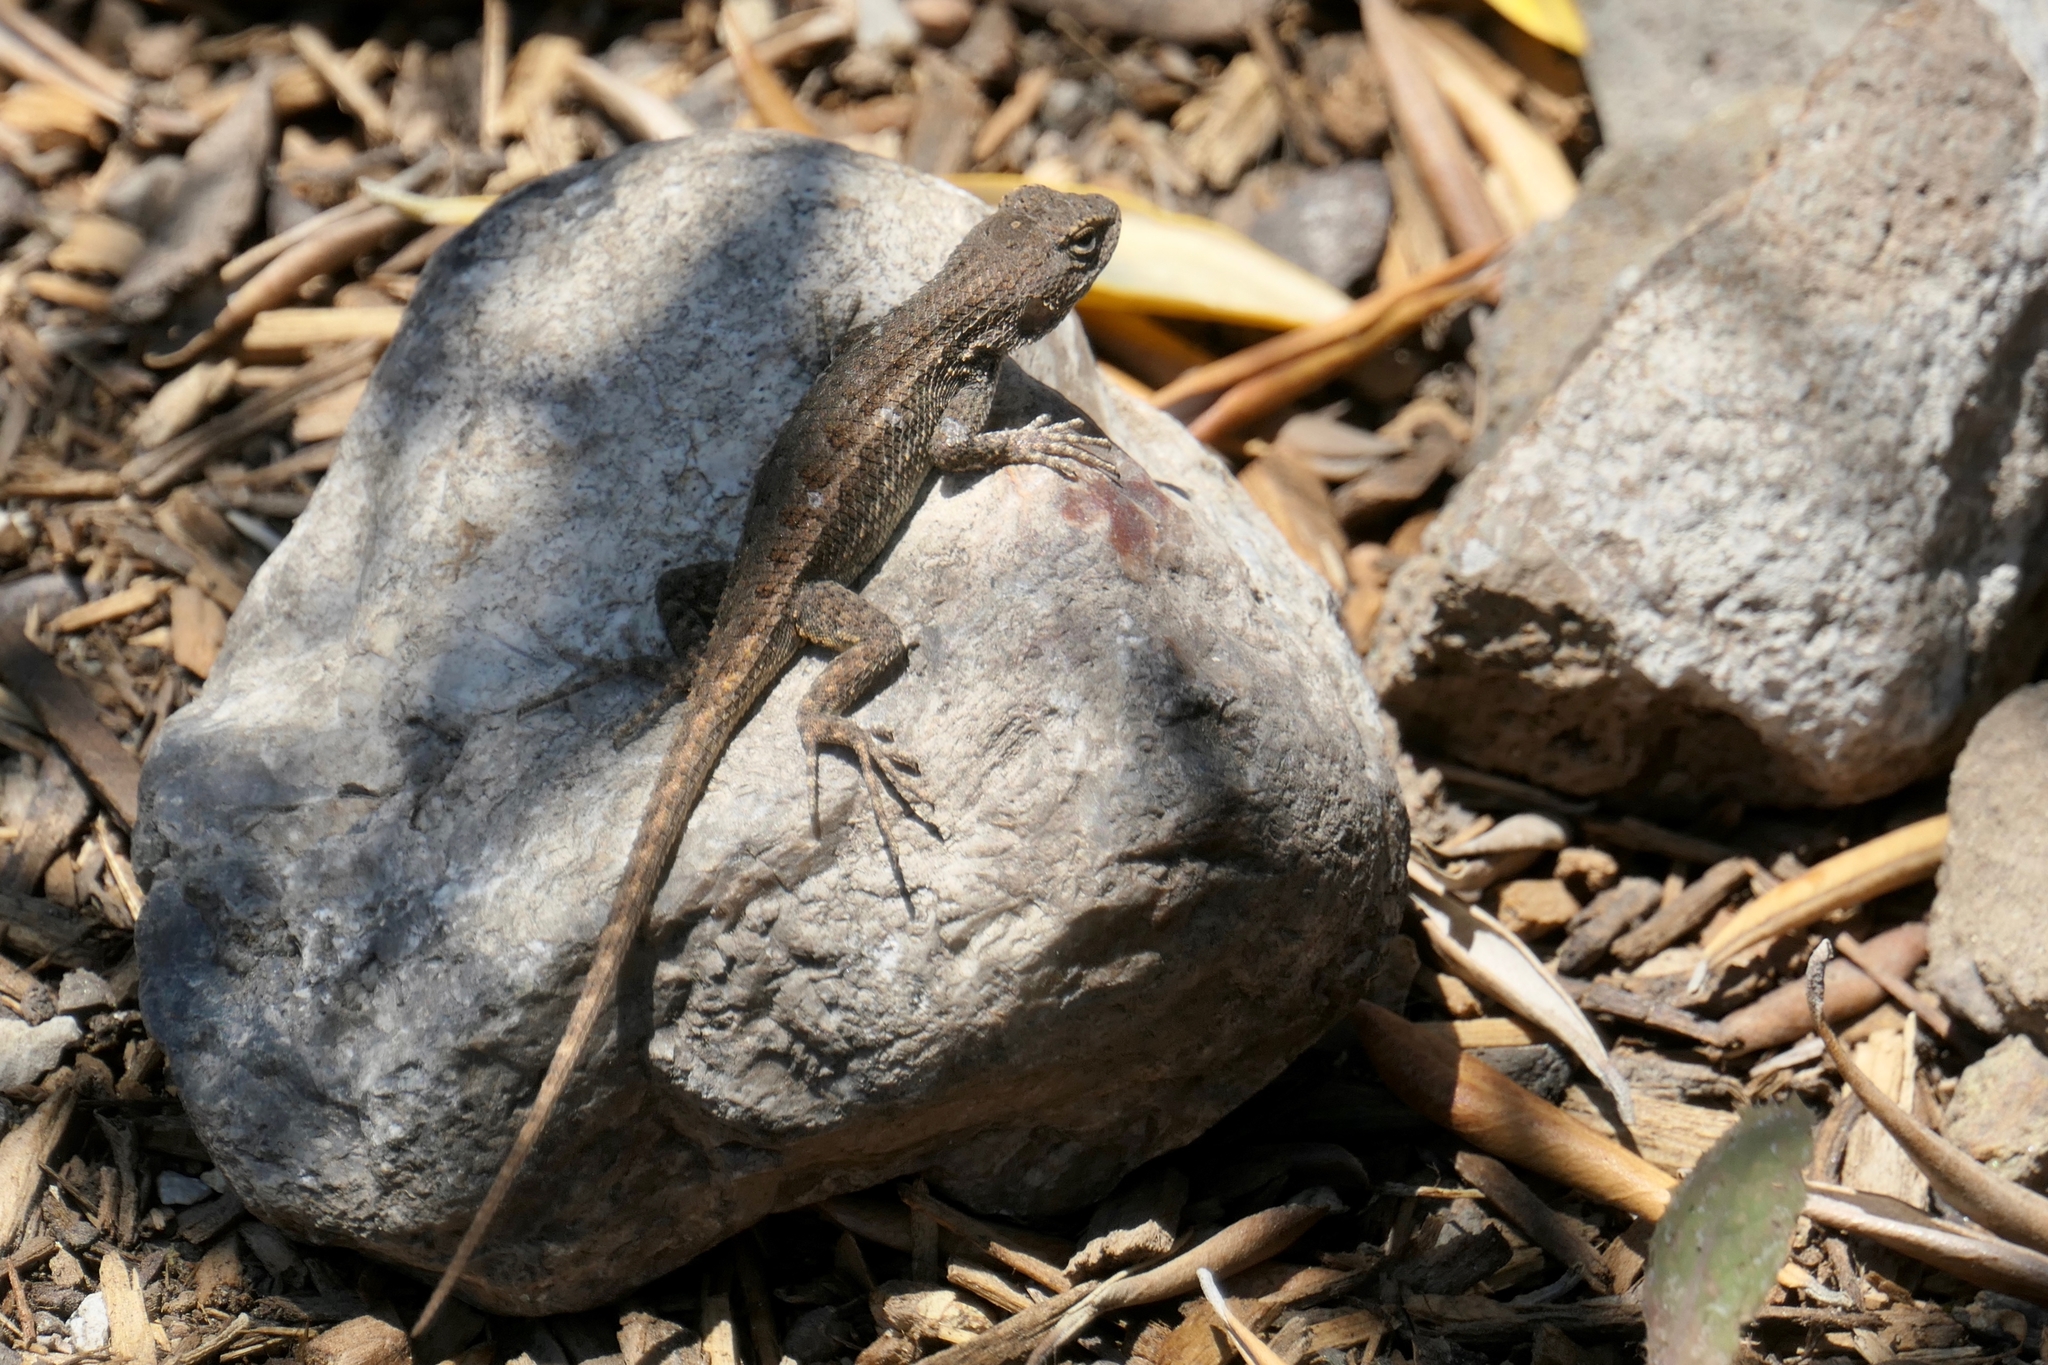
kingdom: Animalia
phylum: Chordata
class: Squamata
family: Phrynosomatidae
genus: Sceloporus
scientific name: Sceloporus occidentalis
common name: Western fence lizard
